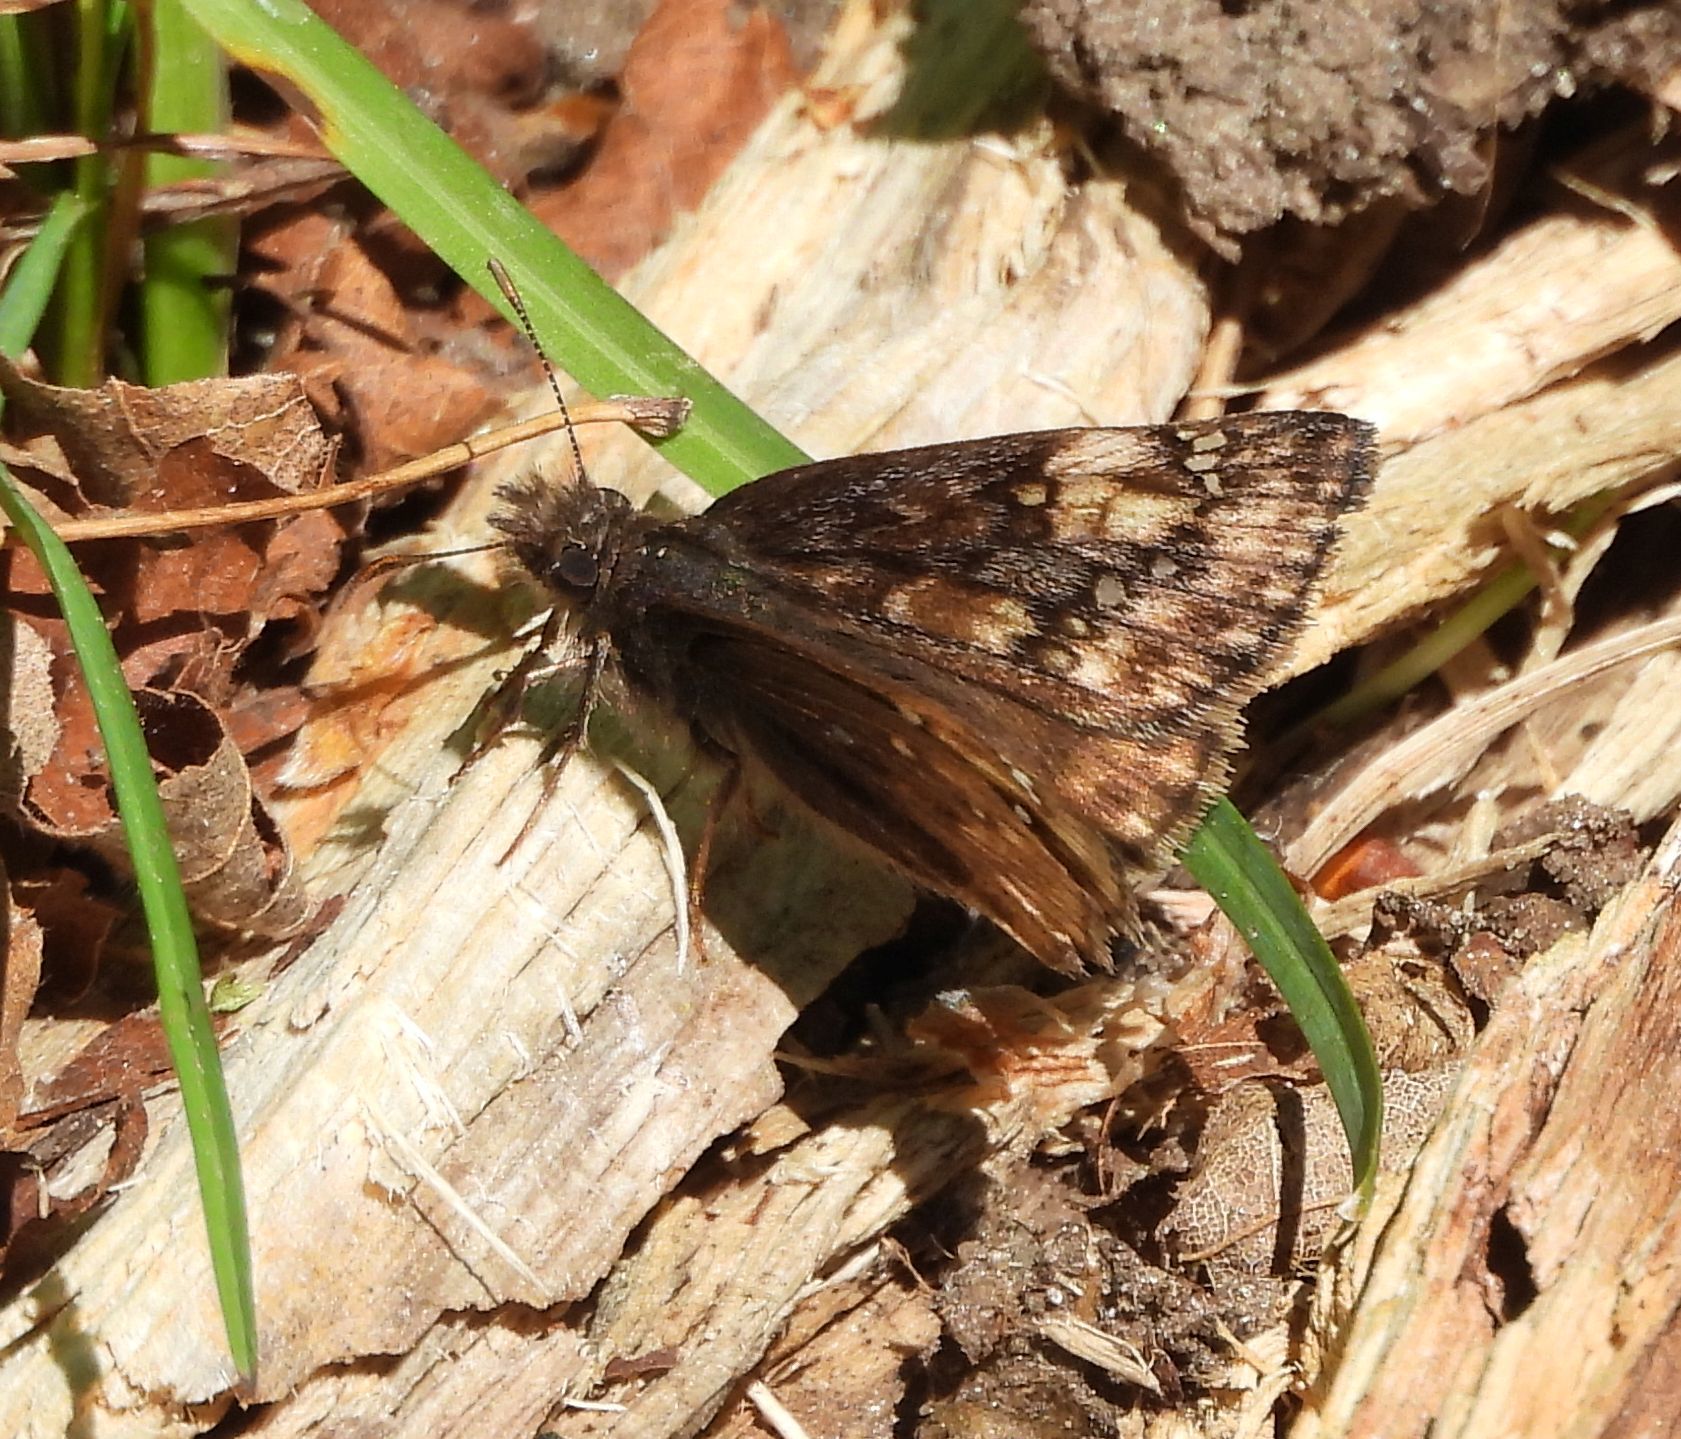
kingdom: Animalia
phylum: Arthropoda
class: Insecta
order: Lepidoptera
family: Hesperiidae
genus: Erynnis
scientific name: Erynnis juvenalis
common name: Juvenal's duskywing
